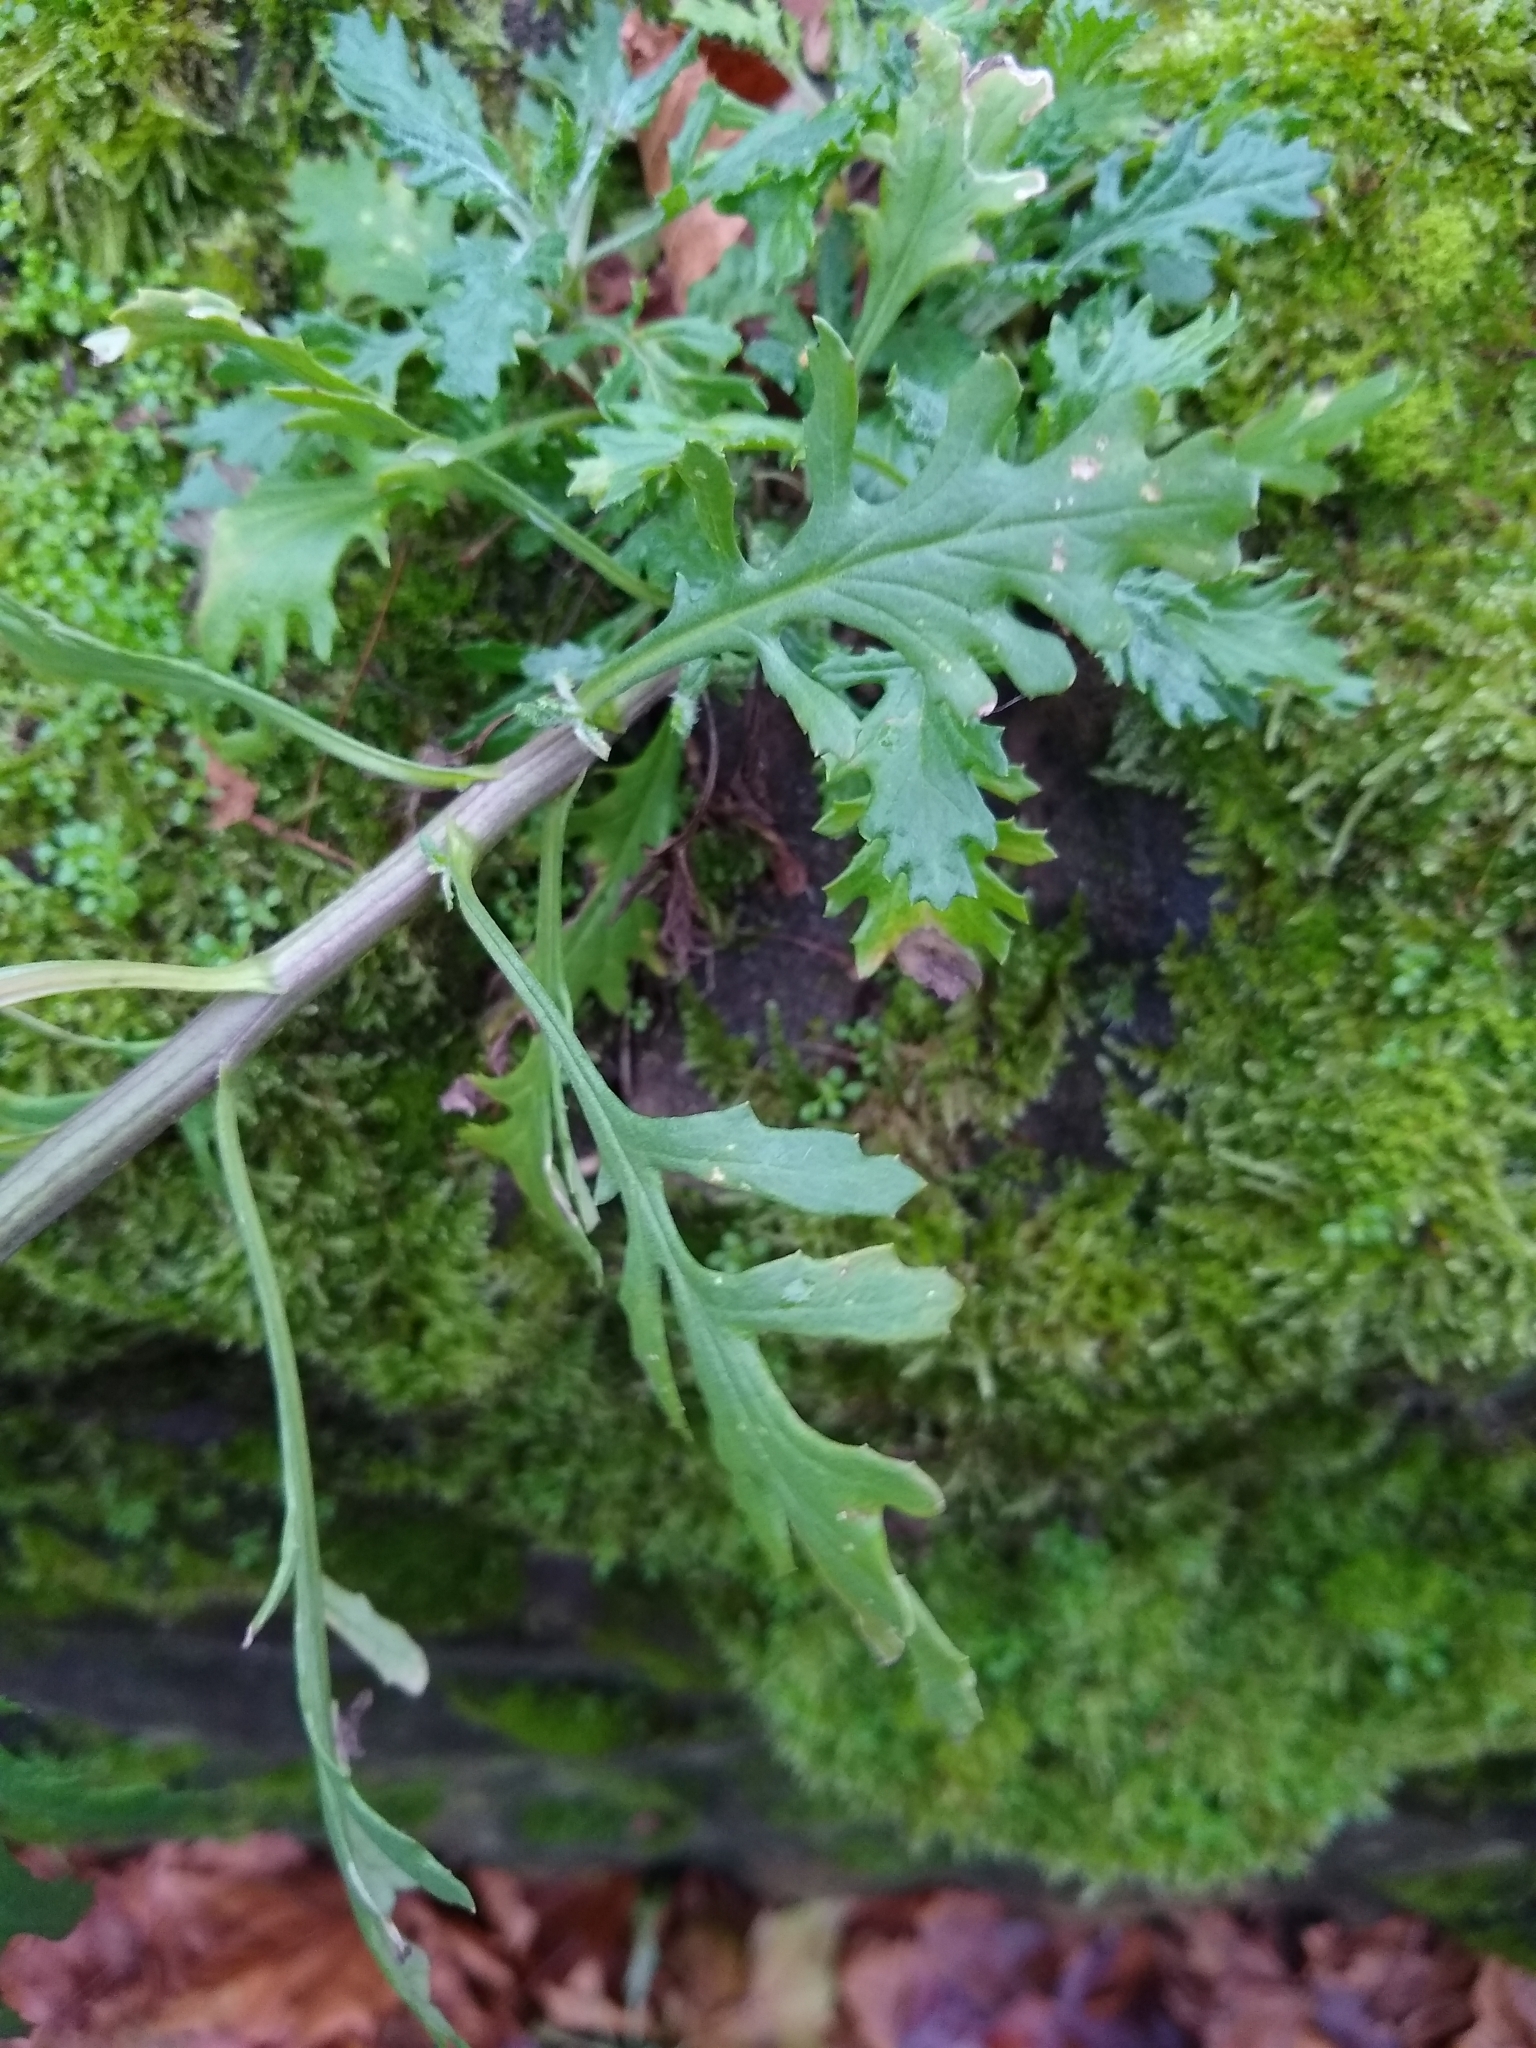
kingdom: Plantae
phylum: Tracheophyta
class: Magnoliopsida
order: Asterales
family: Asteraceae
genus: Senecio
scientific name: Senecio squalidus
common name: Oxford ragwort
